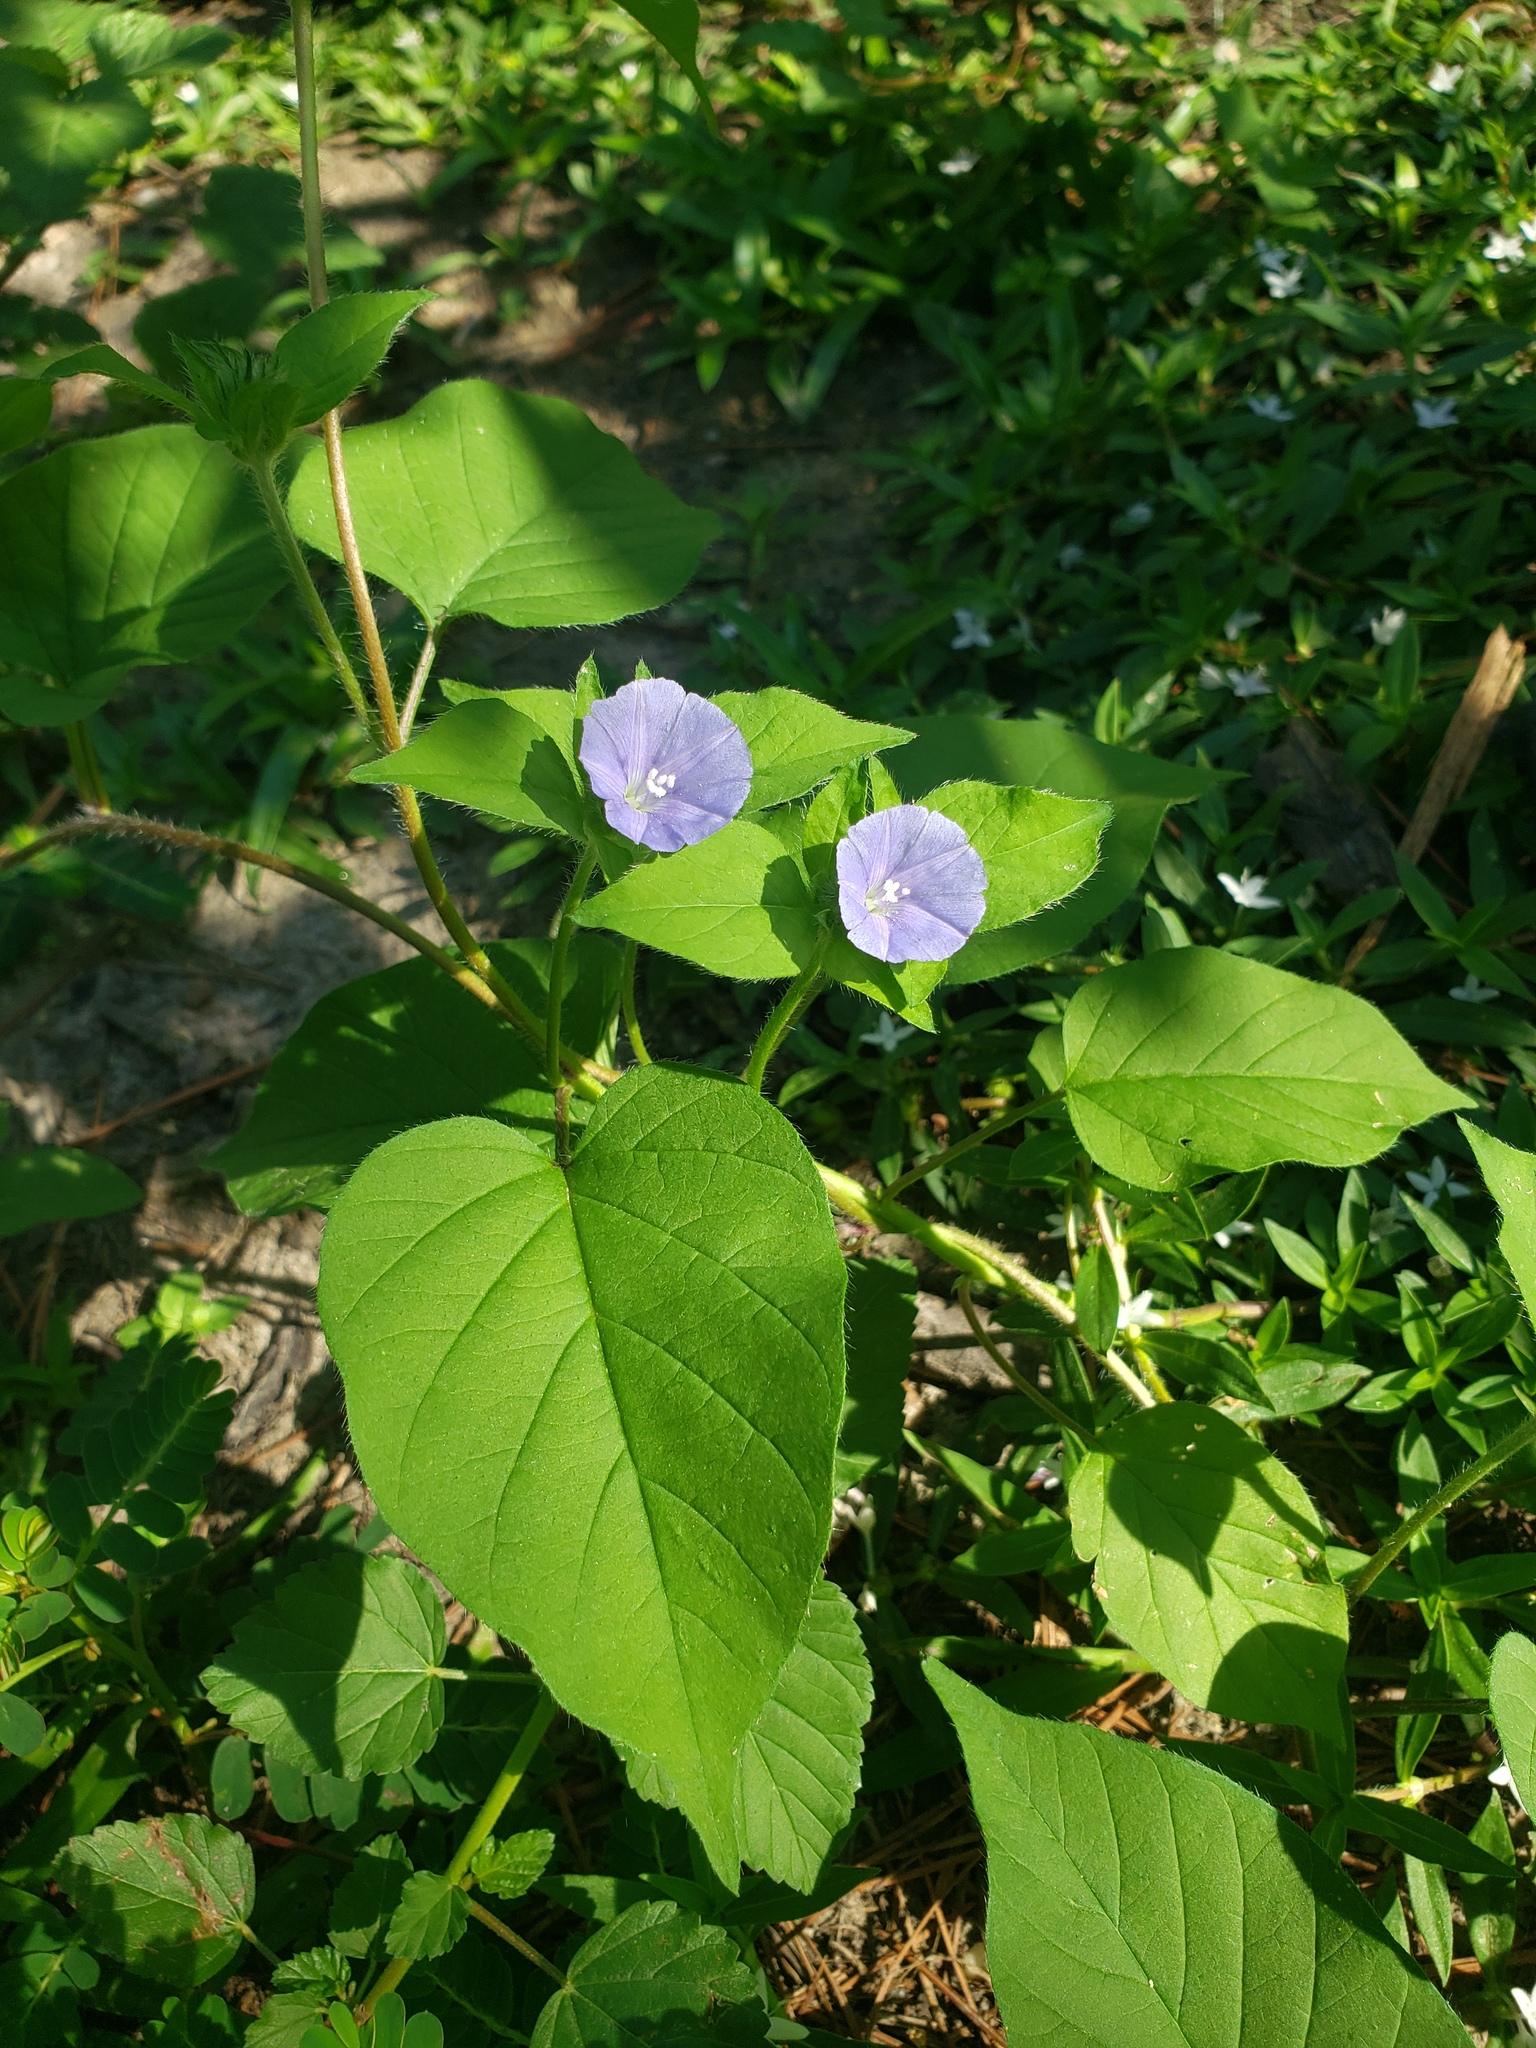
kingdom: Plantae
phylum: Tracheophyta
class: Magnoliopsida
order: Solanales
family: Convolvulaceae
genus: Jacquemontia
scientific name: Jacquemontia tamnifolia
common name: Hairy clustervine
